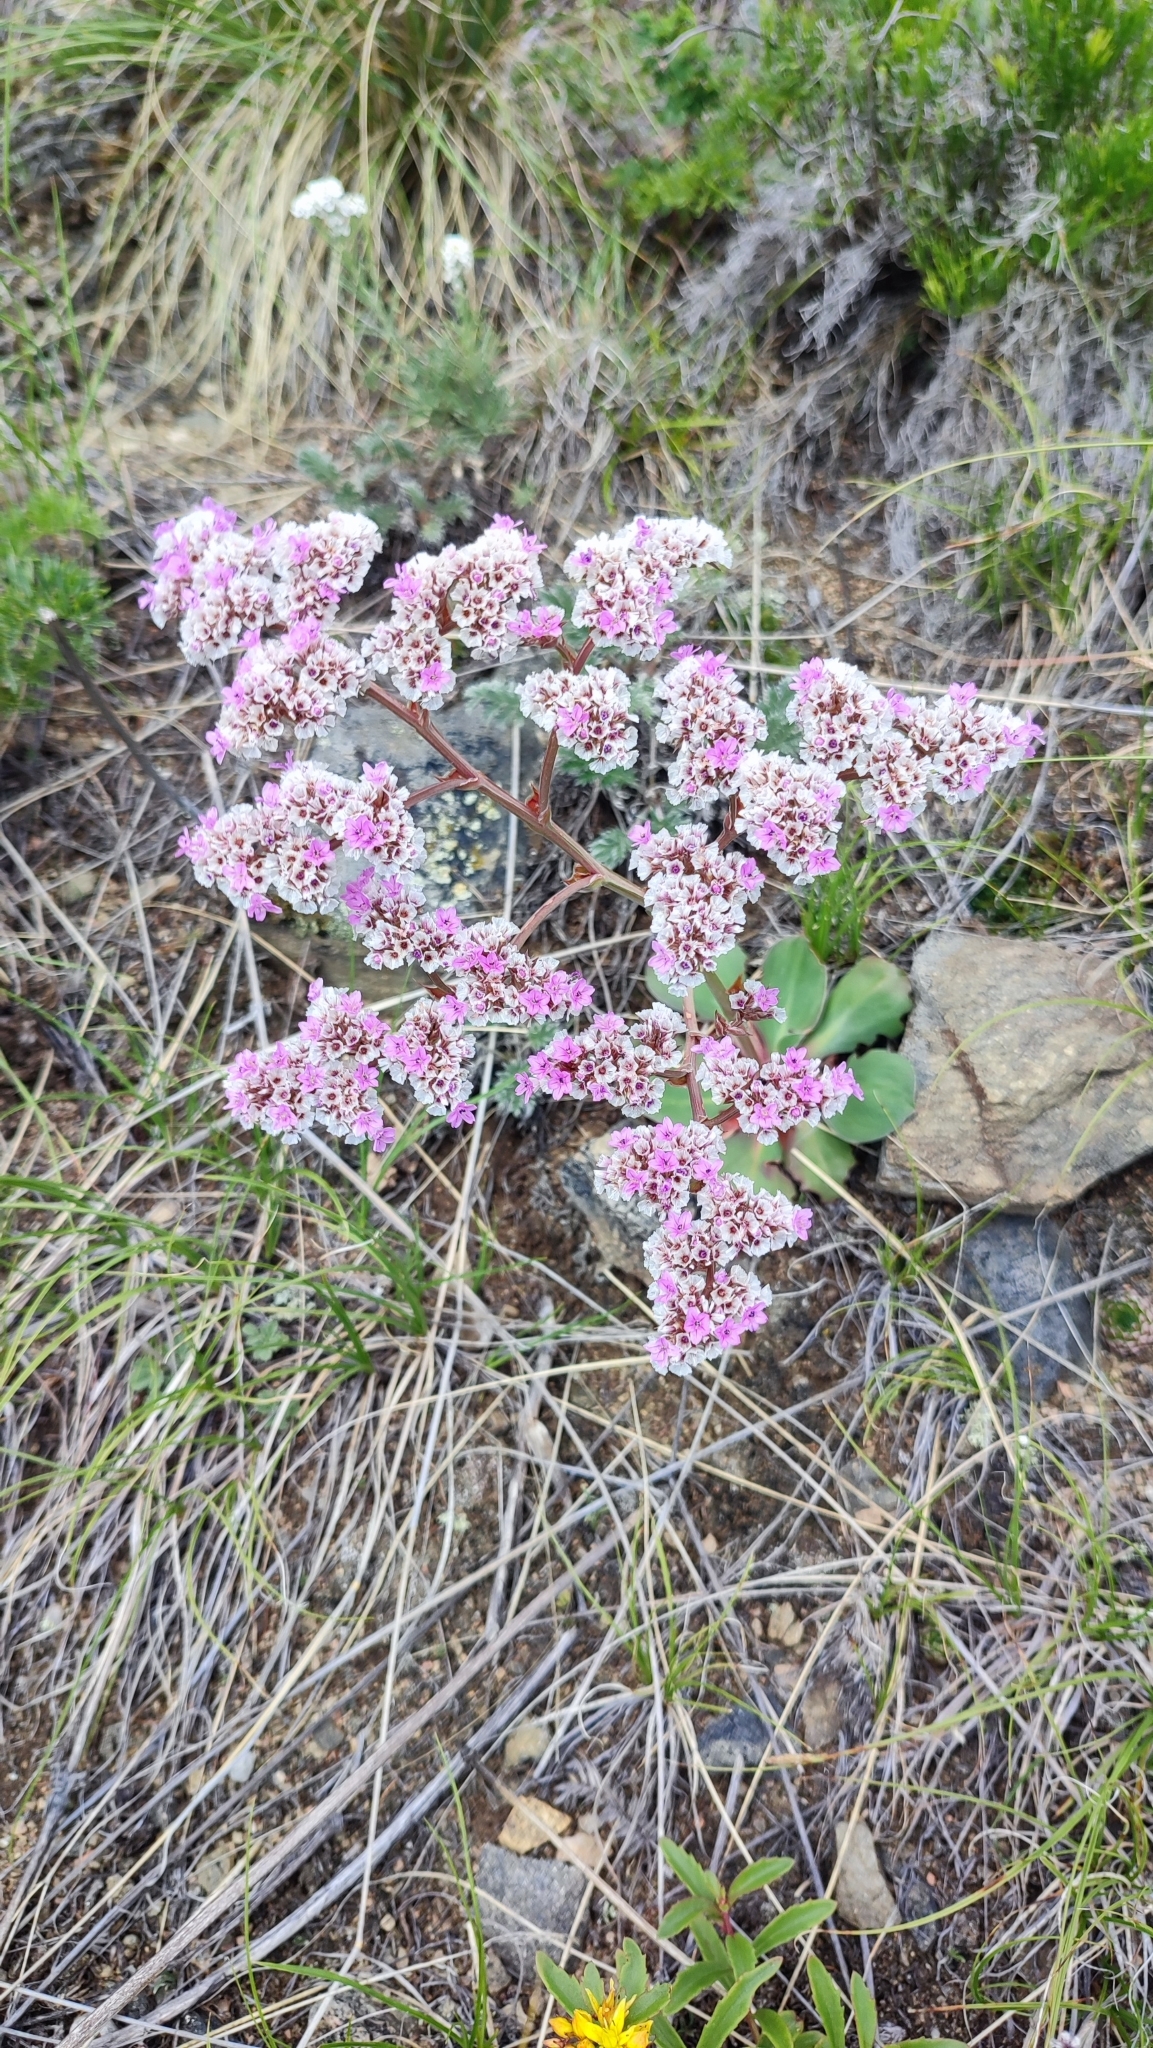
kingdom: Plantae
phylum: Tracheophyta
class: Magnoliopsida
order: Caryophyllales
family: Plumbaginaceae
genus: Goniolimon
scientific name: Goniolimon speciosum
